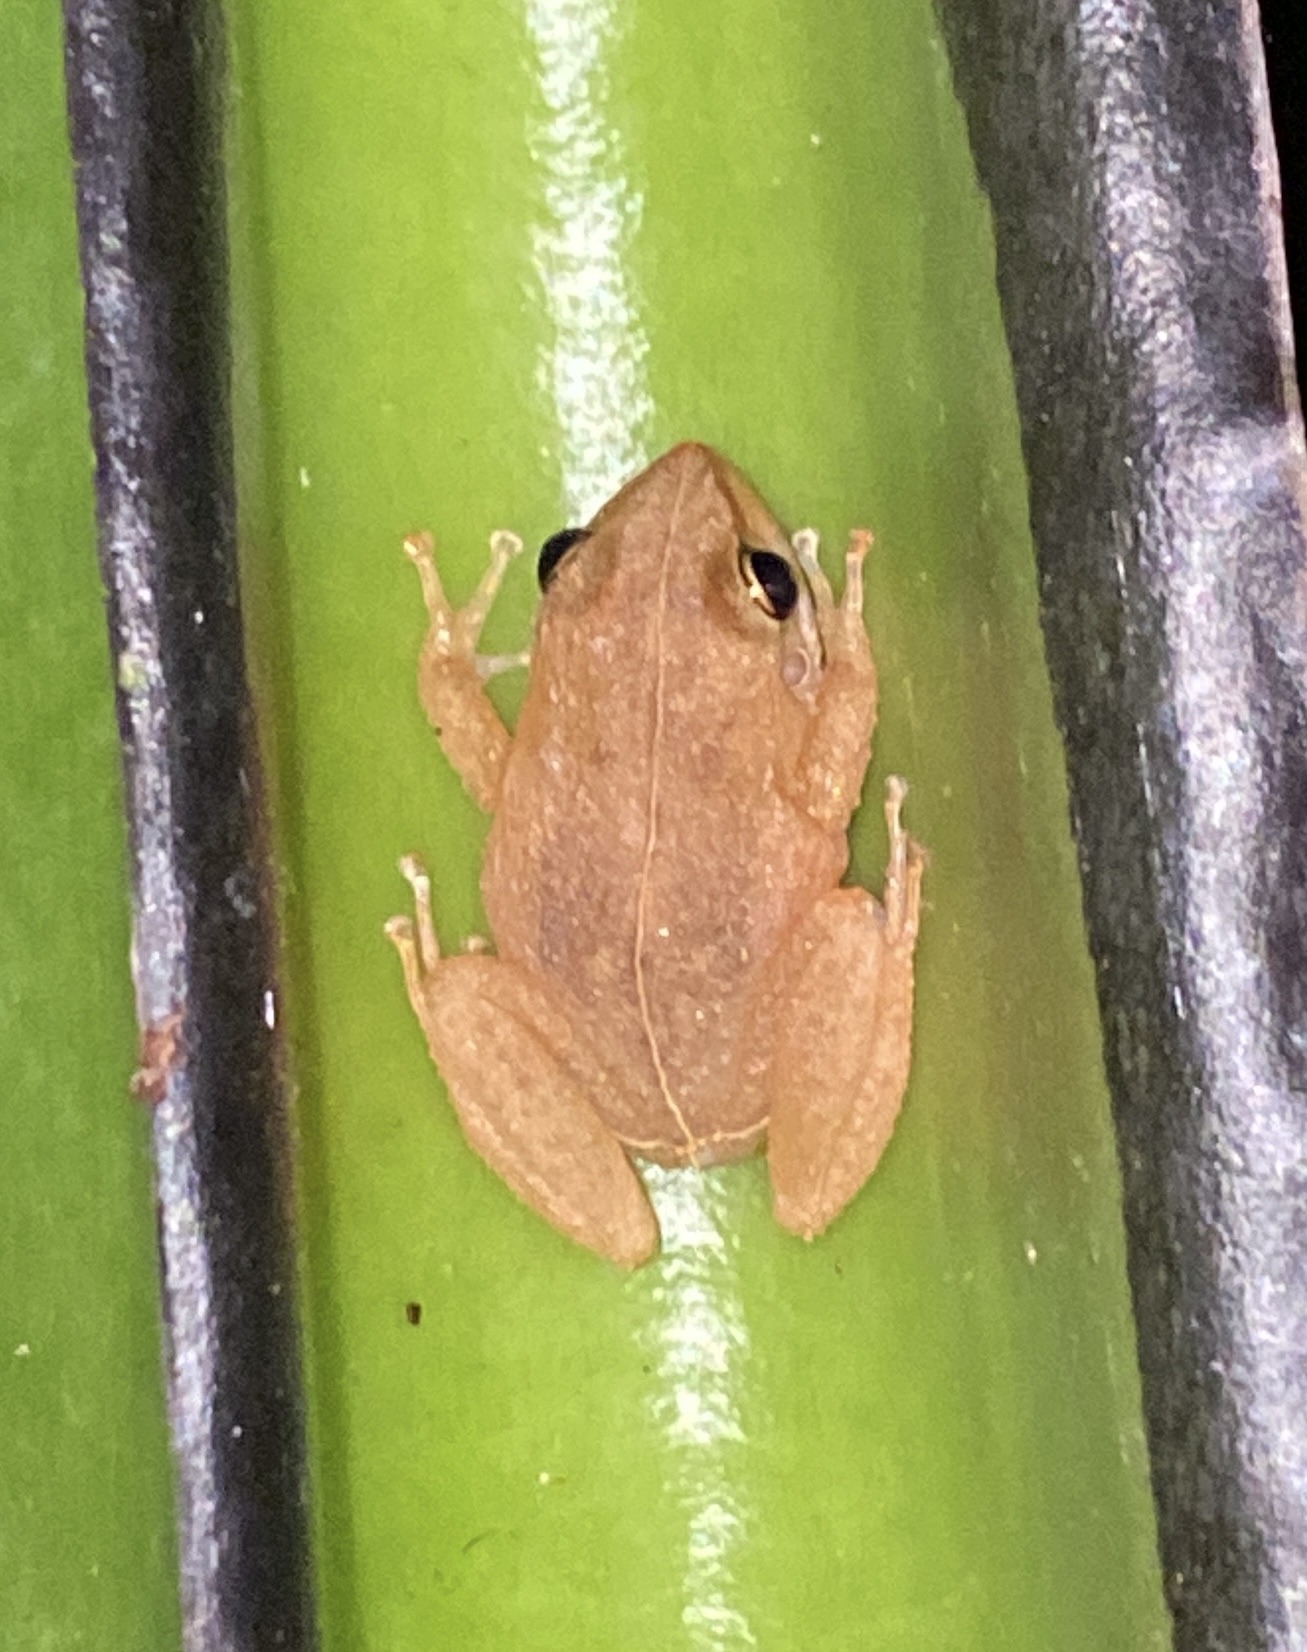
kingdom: Animalia
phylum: Chordata
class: Amphibia
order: Anura
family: Eleutherodactylidae
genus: Eleutherodactylus
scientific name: Eleutherodactylus coqui
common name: Coqui frog
